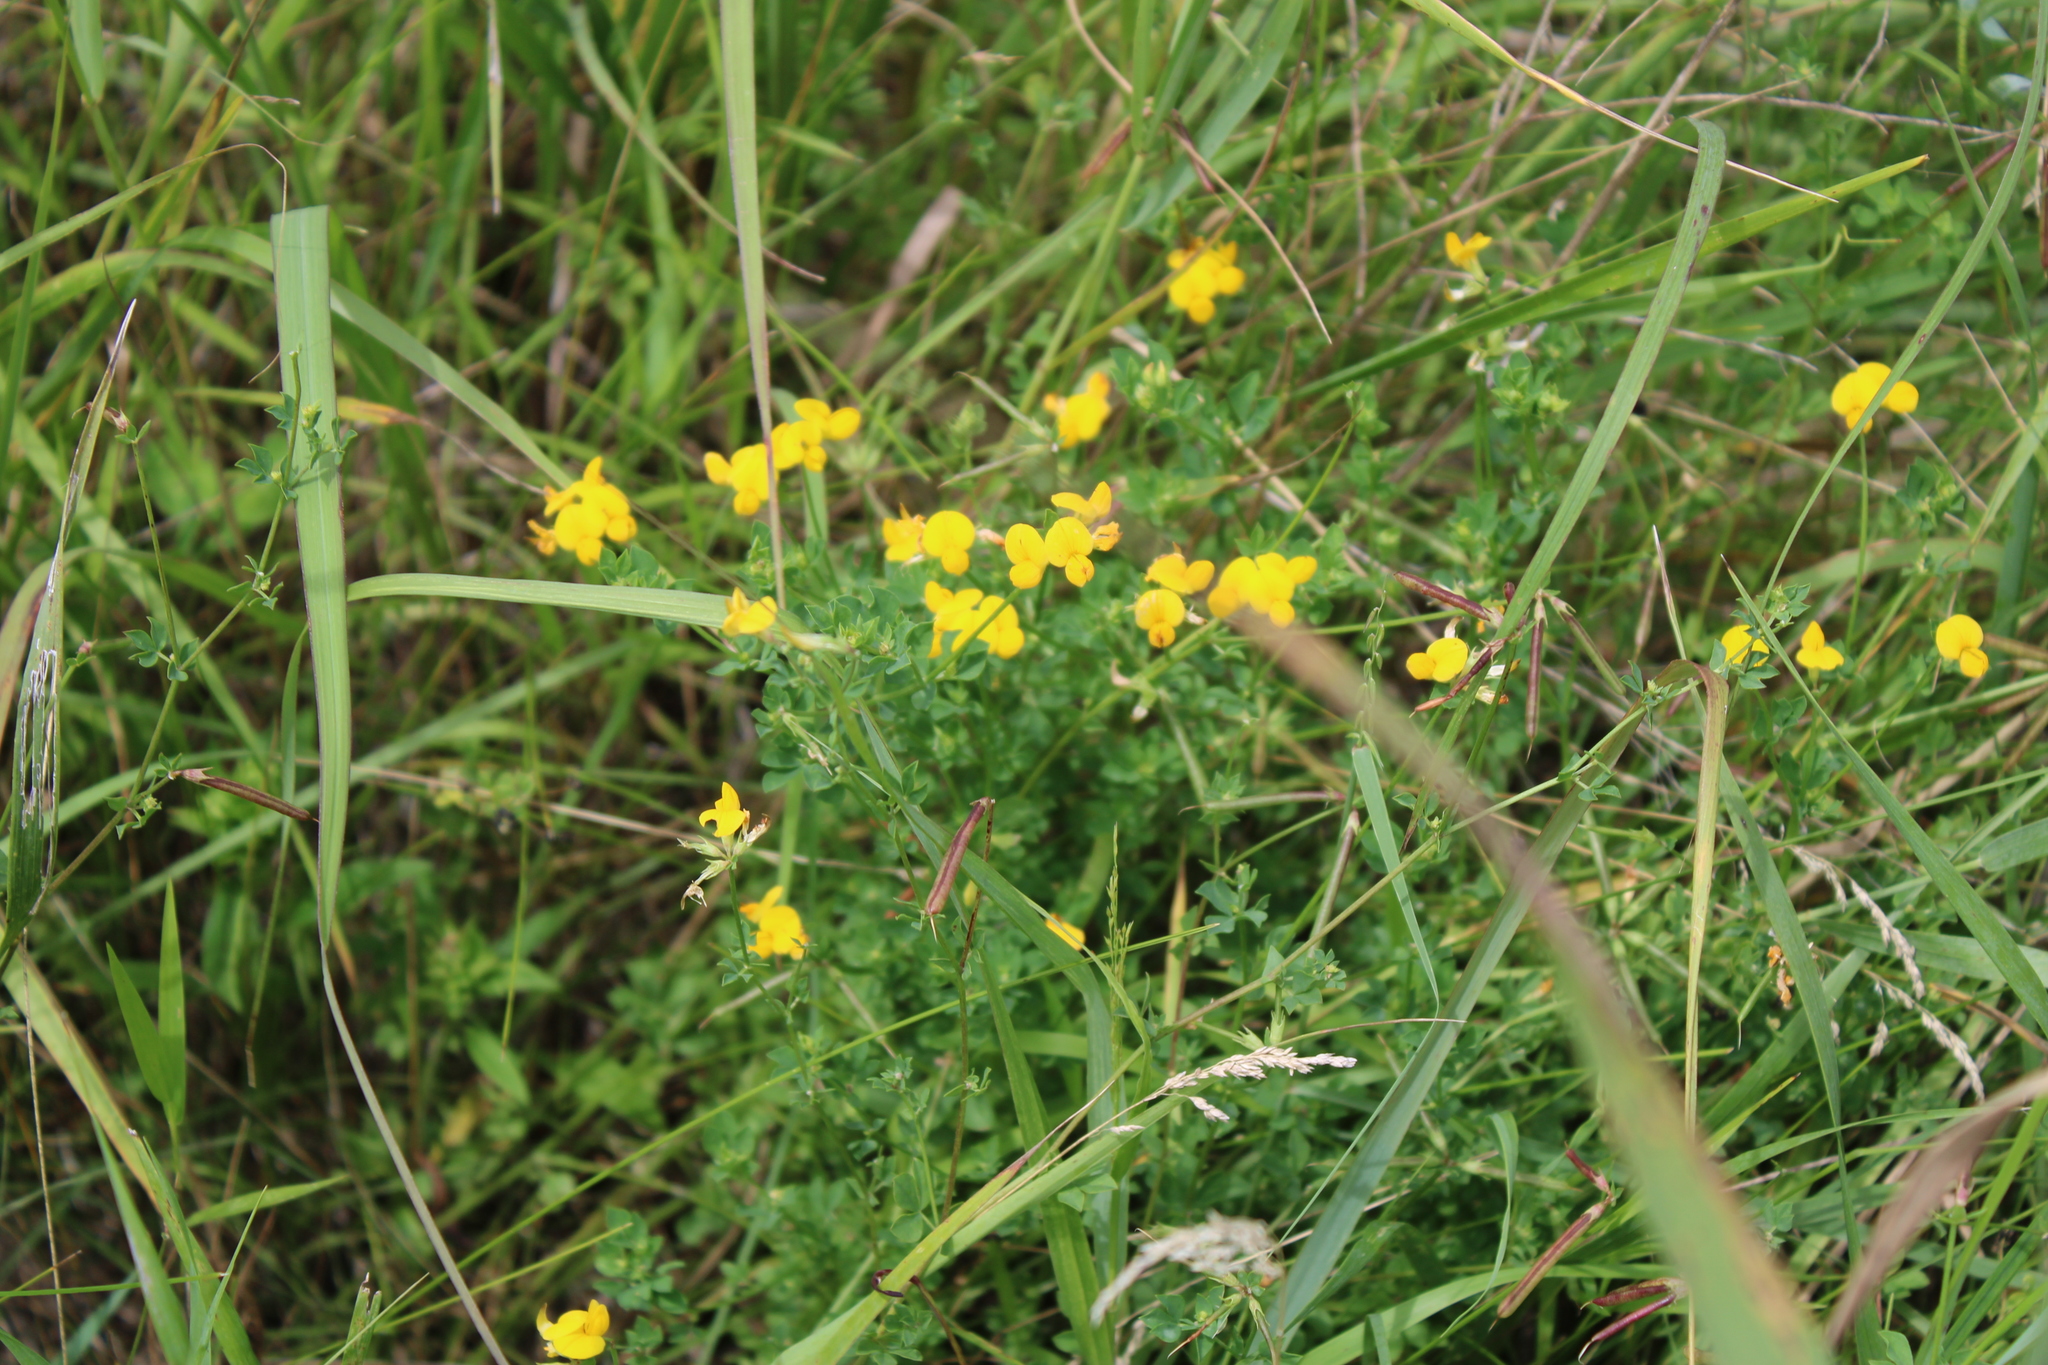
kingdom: Plantae
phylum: Tracheophyta
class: Magnoliopsida
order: Fabales
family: Fabaceae
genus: Lotus
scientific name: Lotus corniculatus
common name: Common bird's-foot-trefoil
